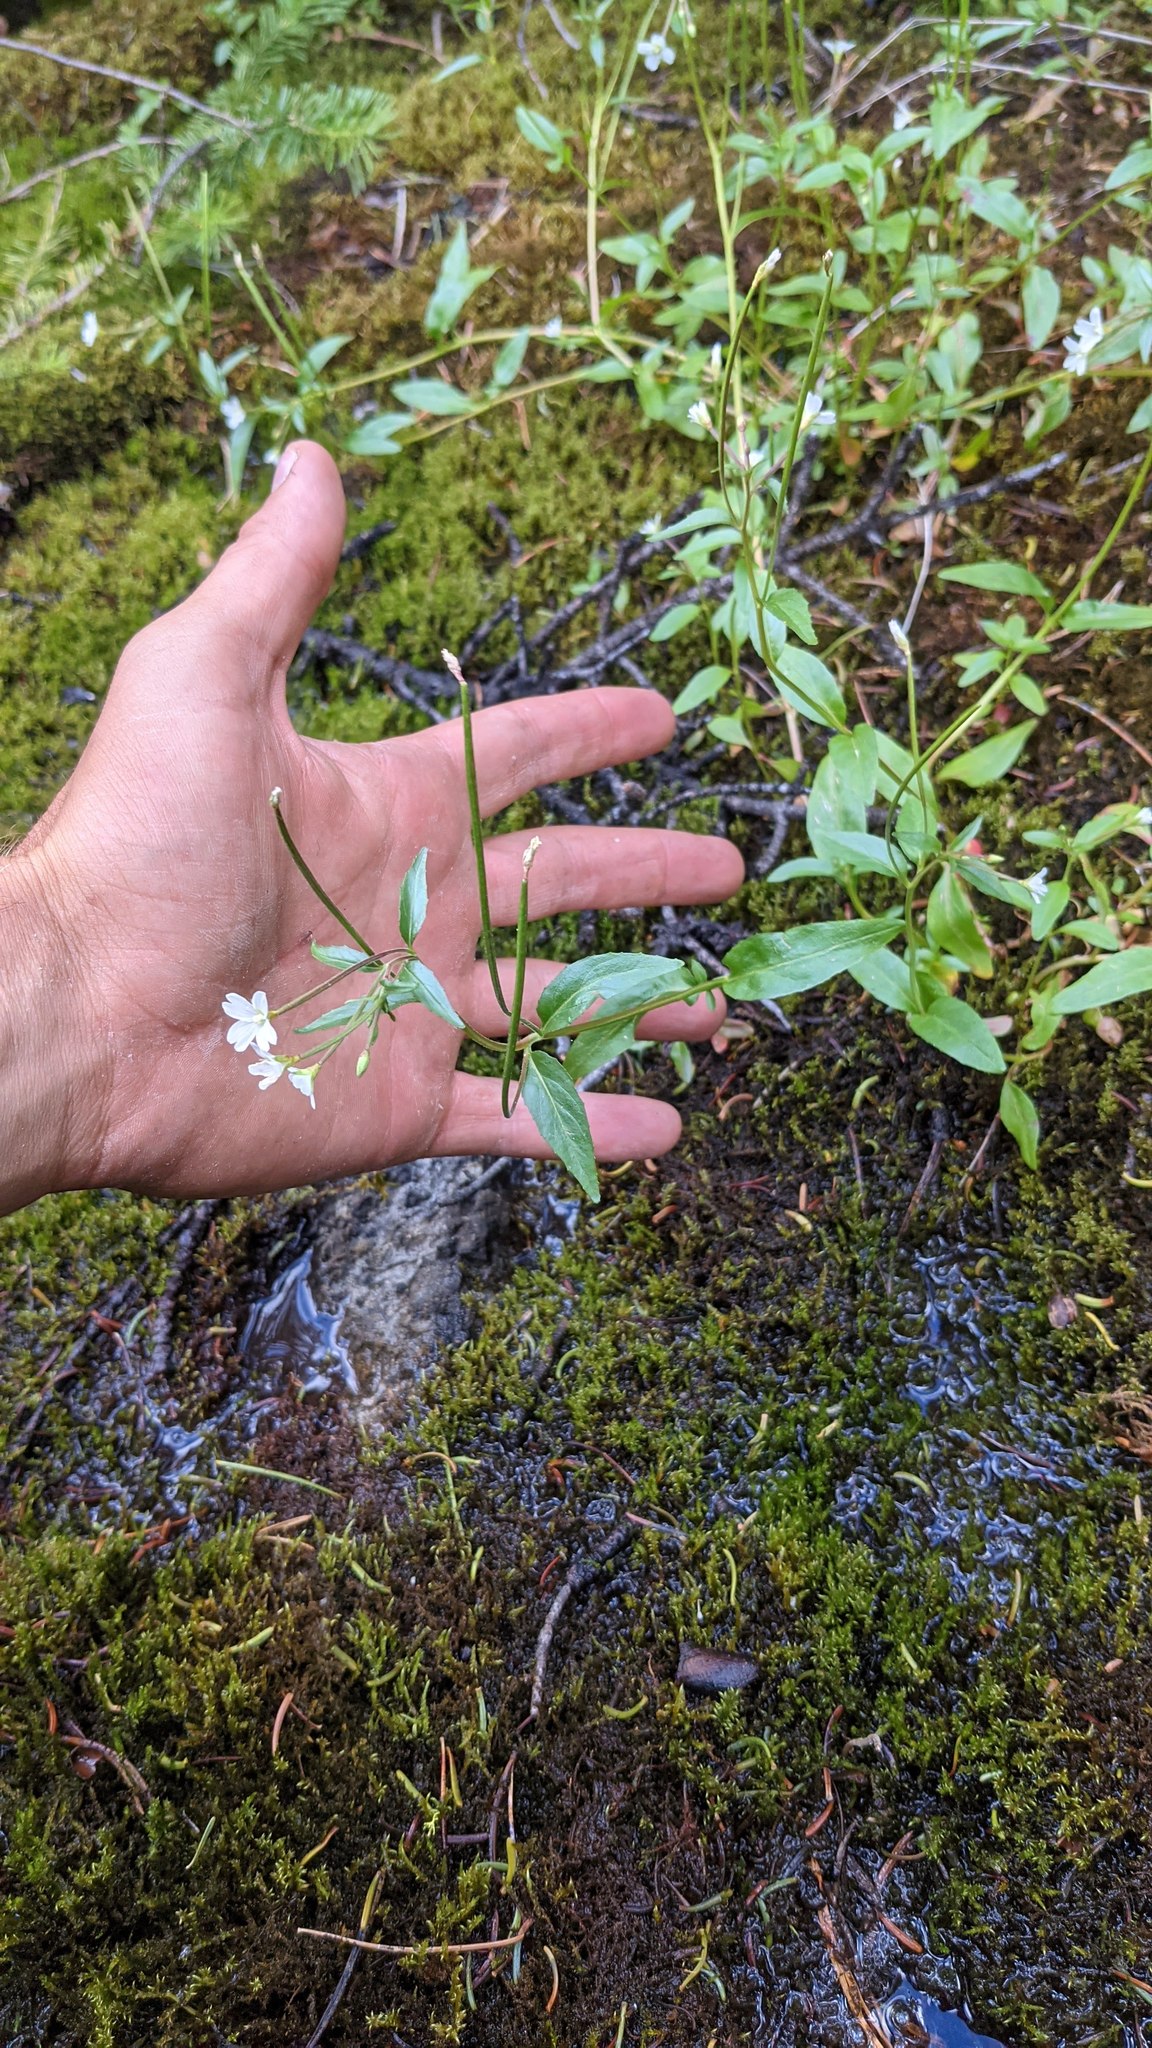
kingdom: Plantae
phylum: Tracheophyta
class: Magnoliopsida
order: Myrtales
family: Onagraceae
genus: Epilobium
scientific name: Epilobium lactiflorum
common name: Milkflower willowherb
